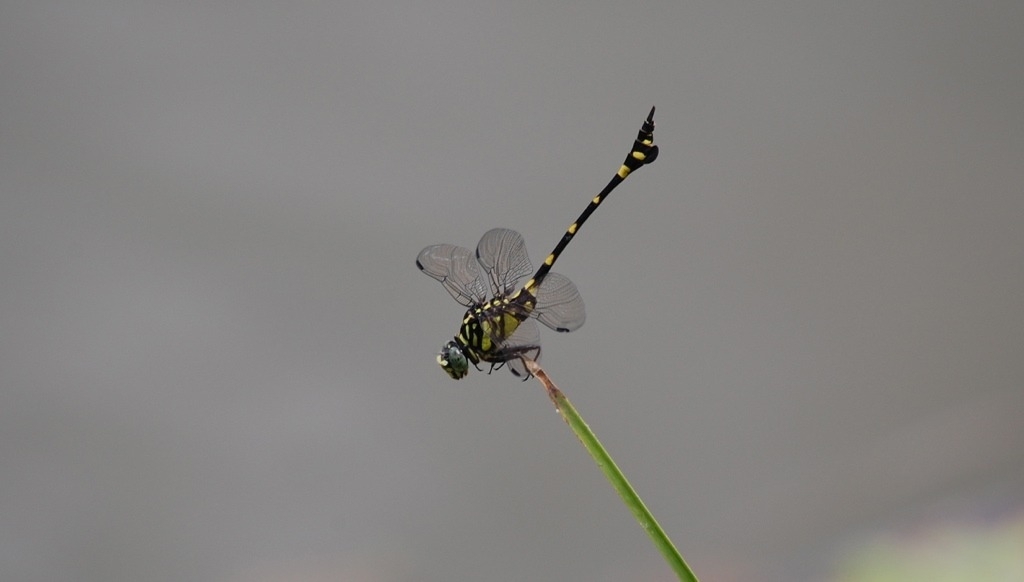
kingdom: Animalia
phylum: Arthropoda
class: Insecta
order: Odonata
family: Gomphidae
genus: Ictinogomphus
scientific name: Ictinogomphus pertinax
